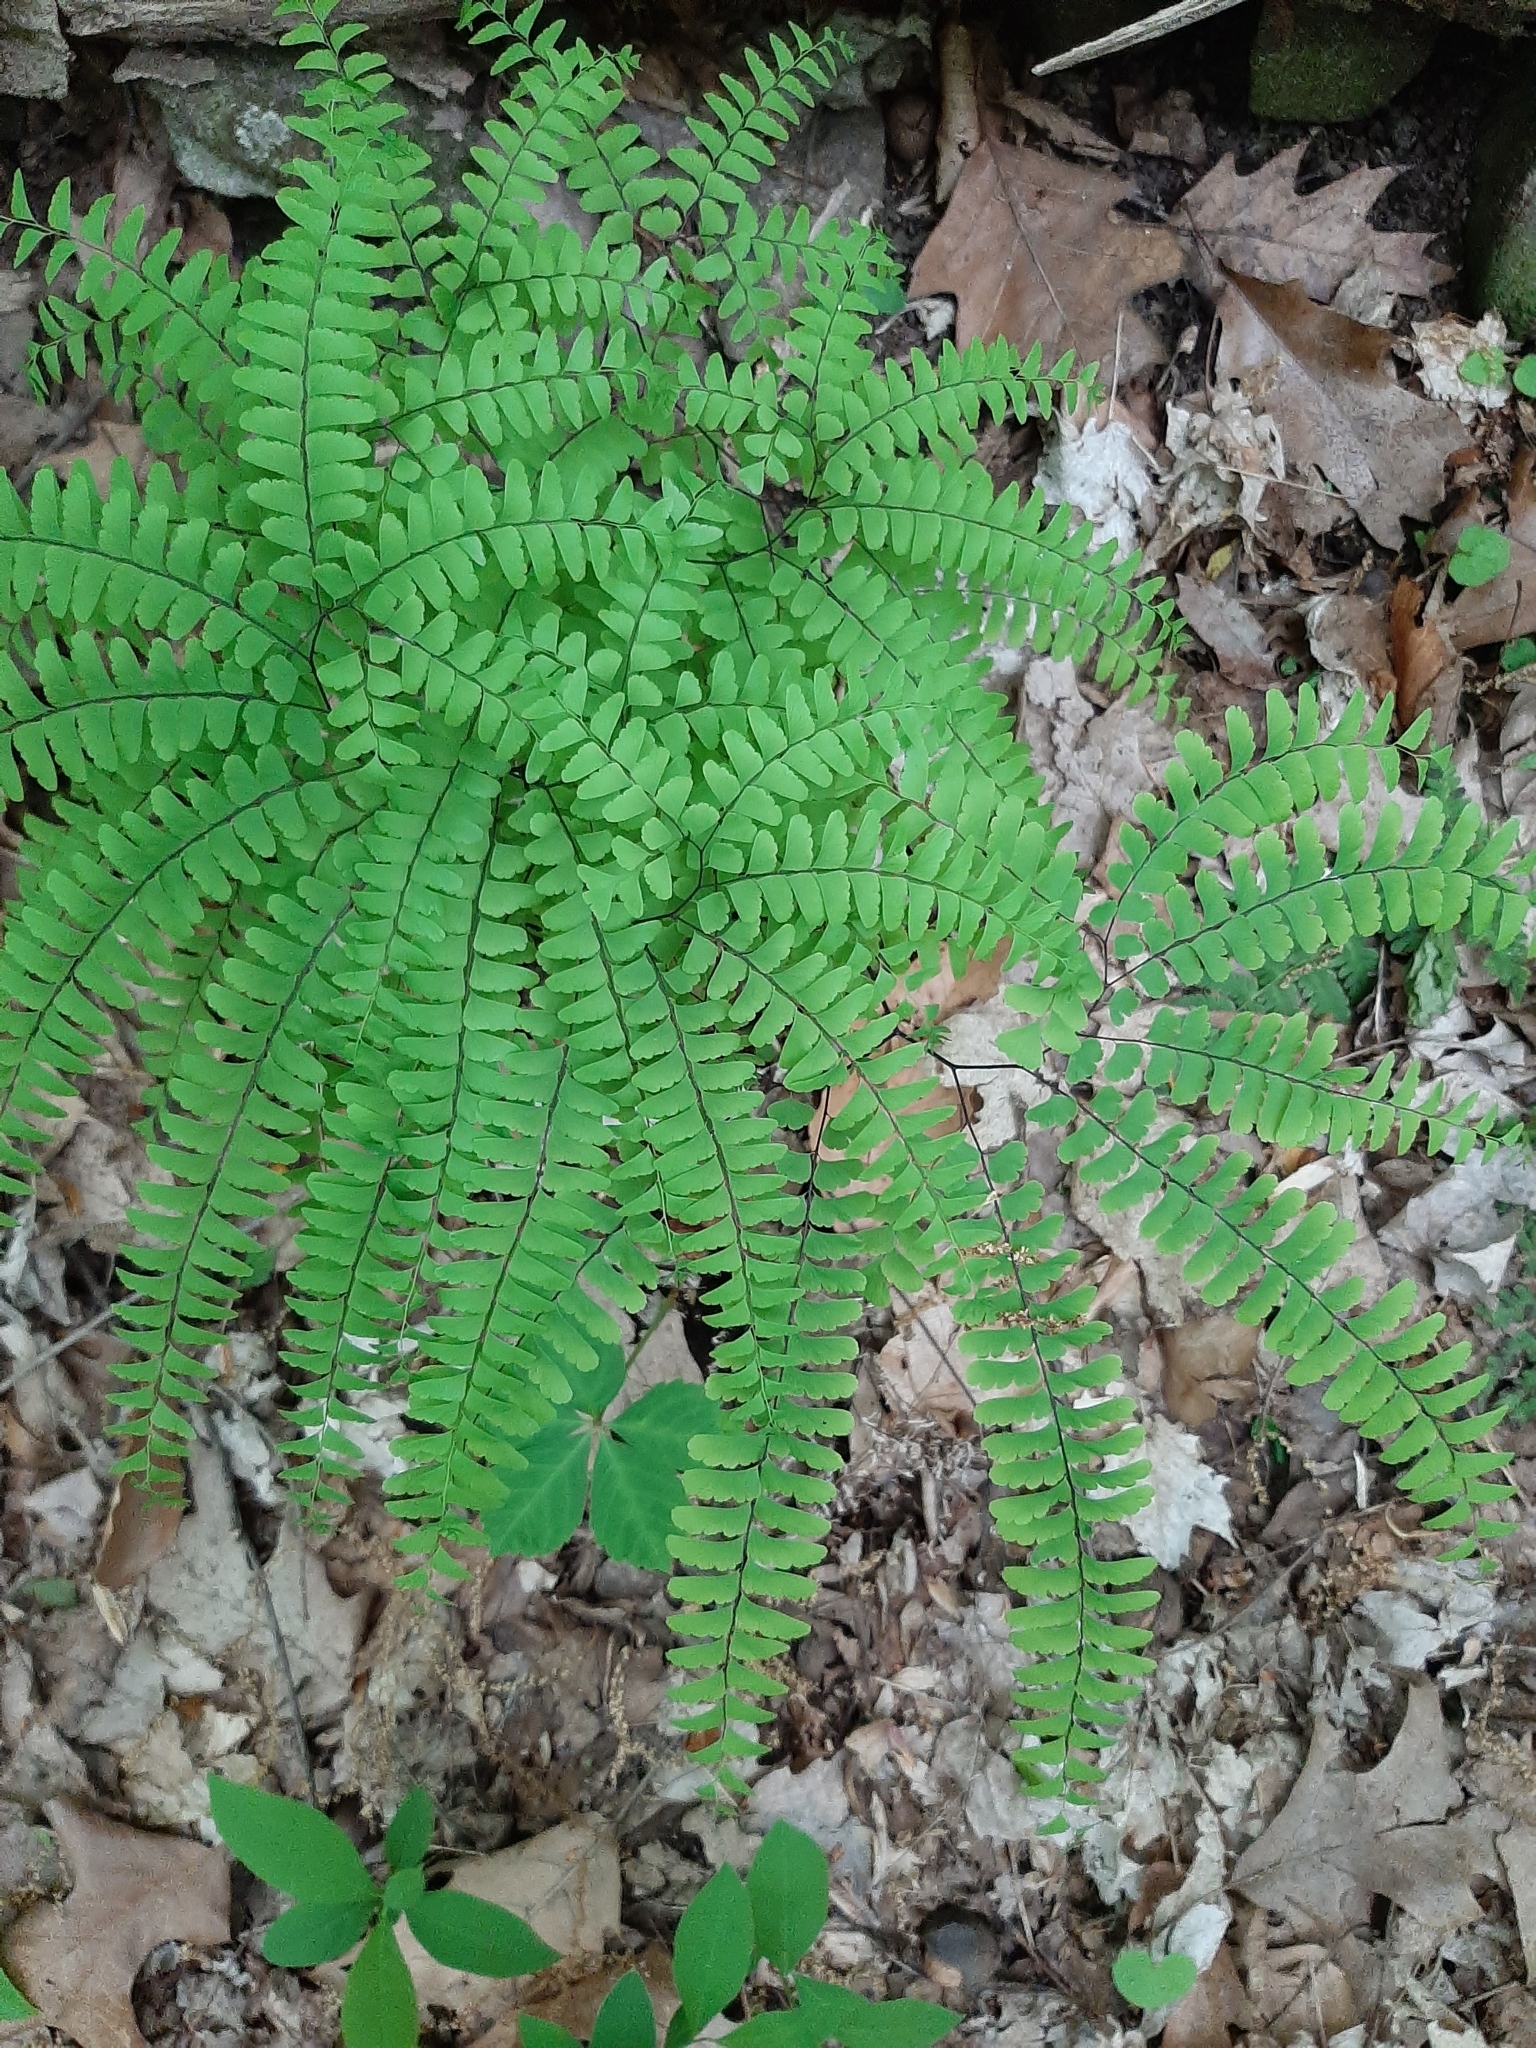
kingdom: Plantae
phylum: Tracheophyta
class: Polypodiopsida
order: Polypodiales
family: Pteridaceae
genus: Adiantum
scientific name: Adiantum pedatum
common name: Five-finger fern
